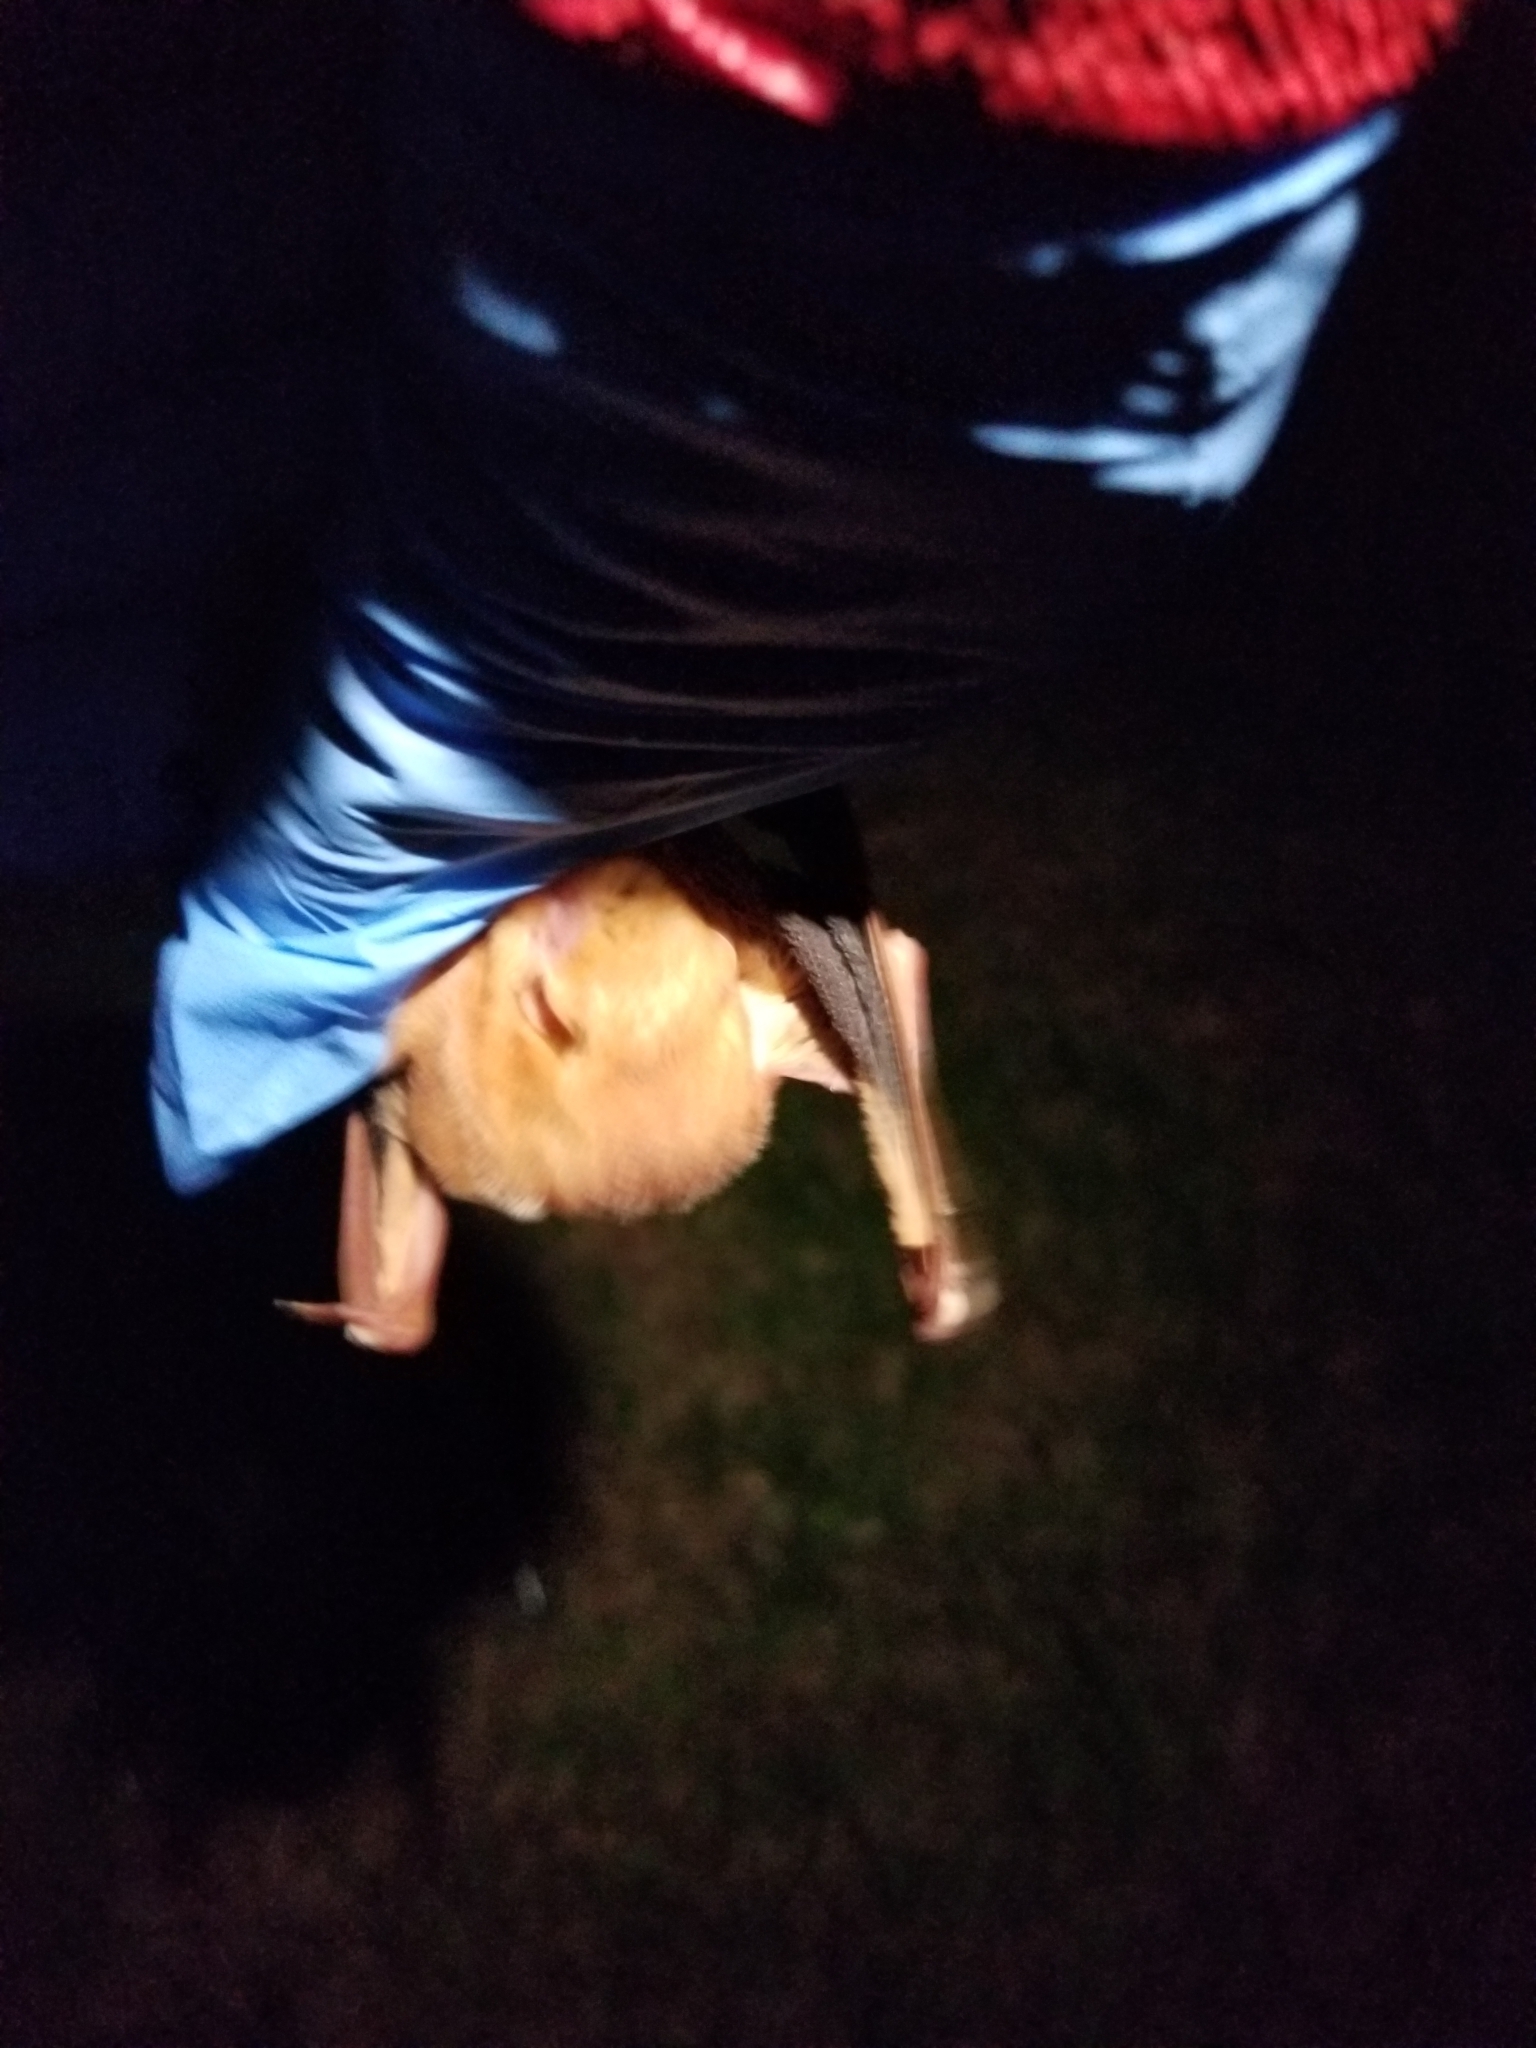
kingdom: Animalia
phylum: Chordata
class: Mammalia
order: Chiroptera
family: Vespertilionidae
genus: Lasiurus
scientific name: Lasiurus borealis
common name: Eastern red bat
